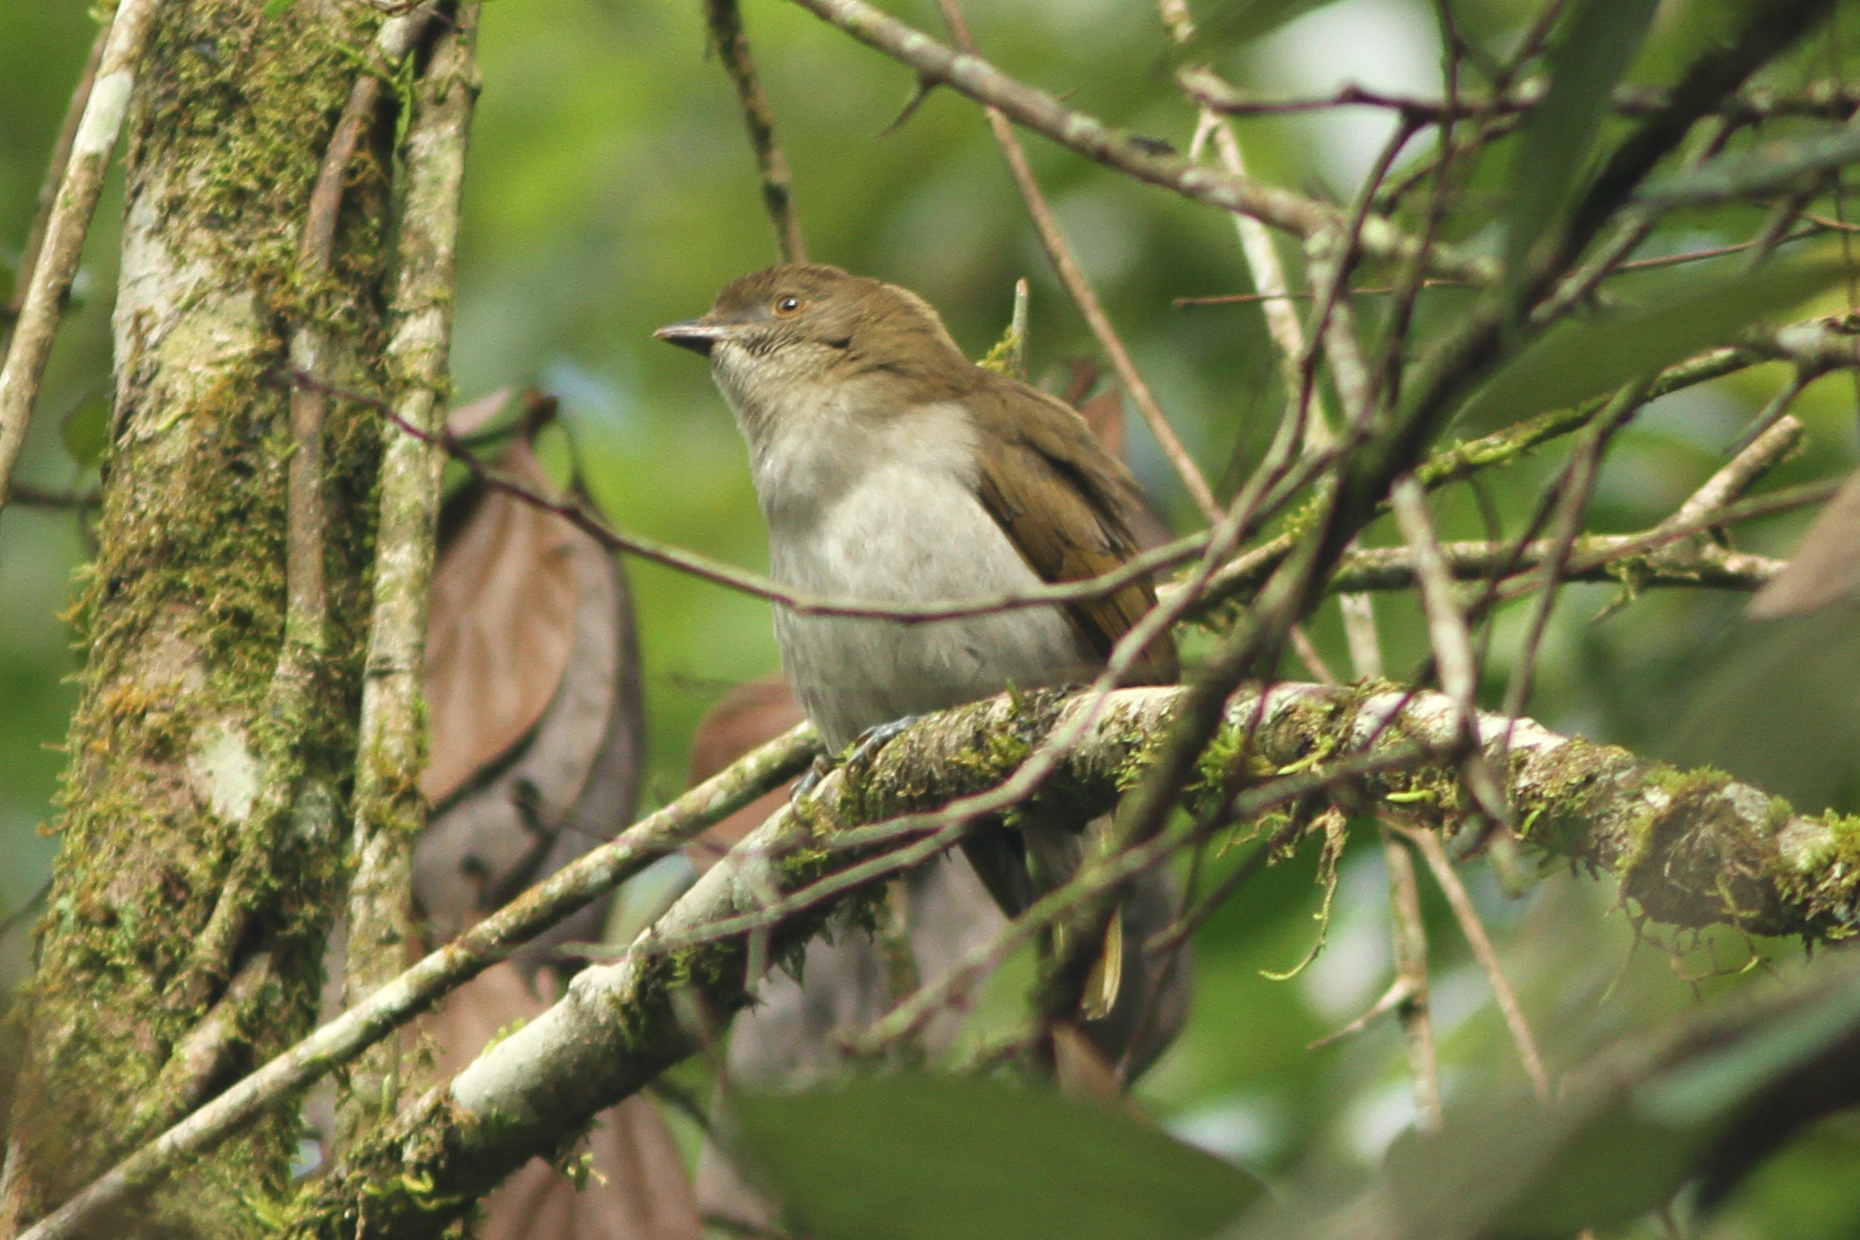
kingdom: Animalia
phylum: Chordata
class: Aves
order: Passeriformes
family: Ptilonorhynchidae
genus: Prionodura
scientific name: Prionodura newtoniana
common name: Golden bowerbird
